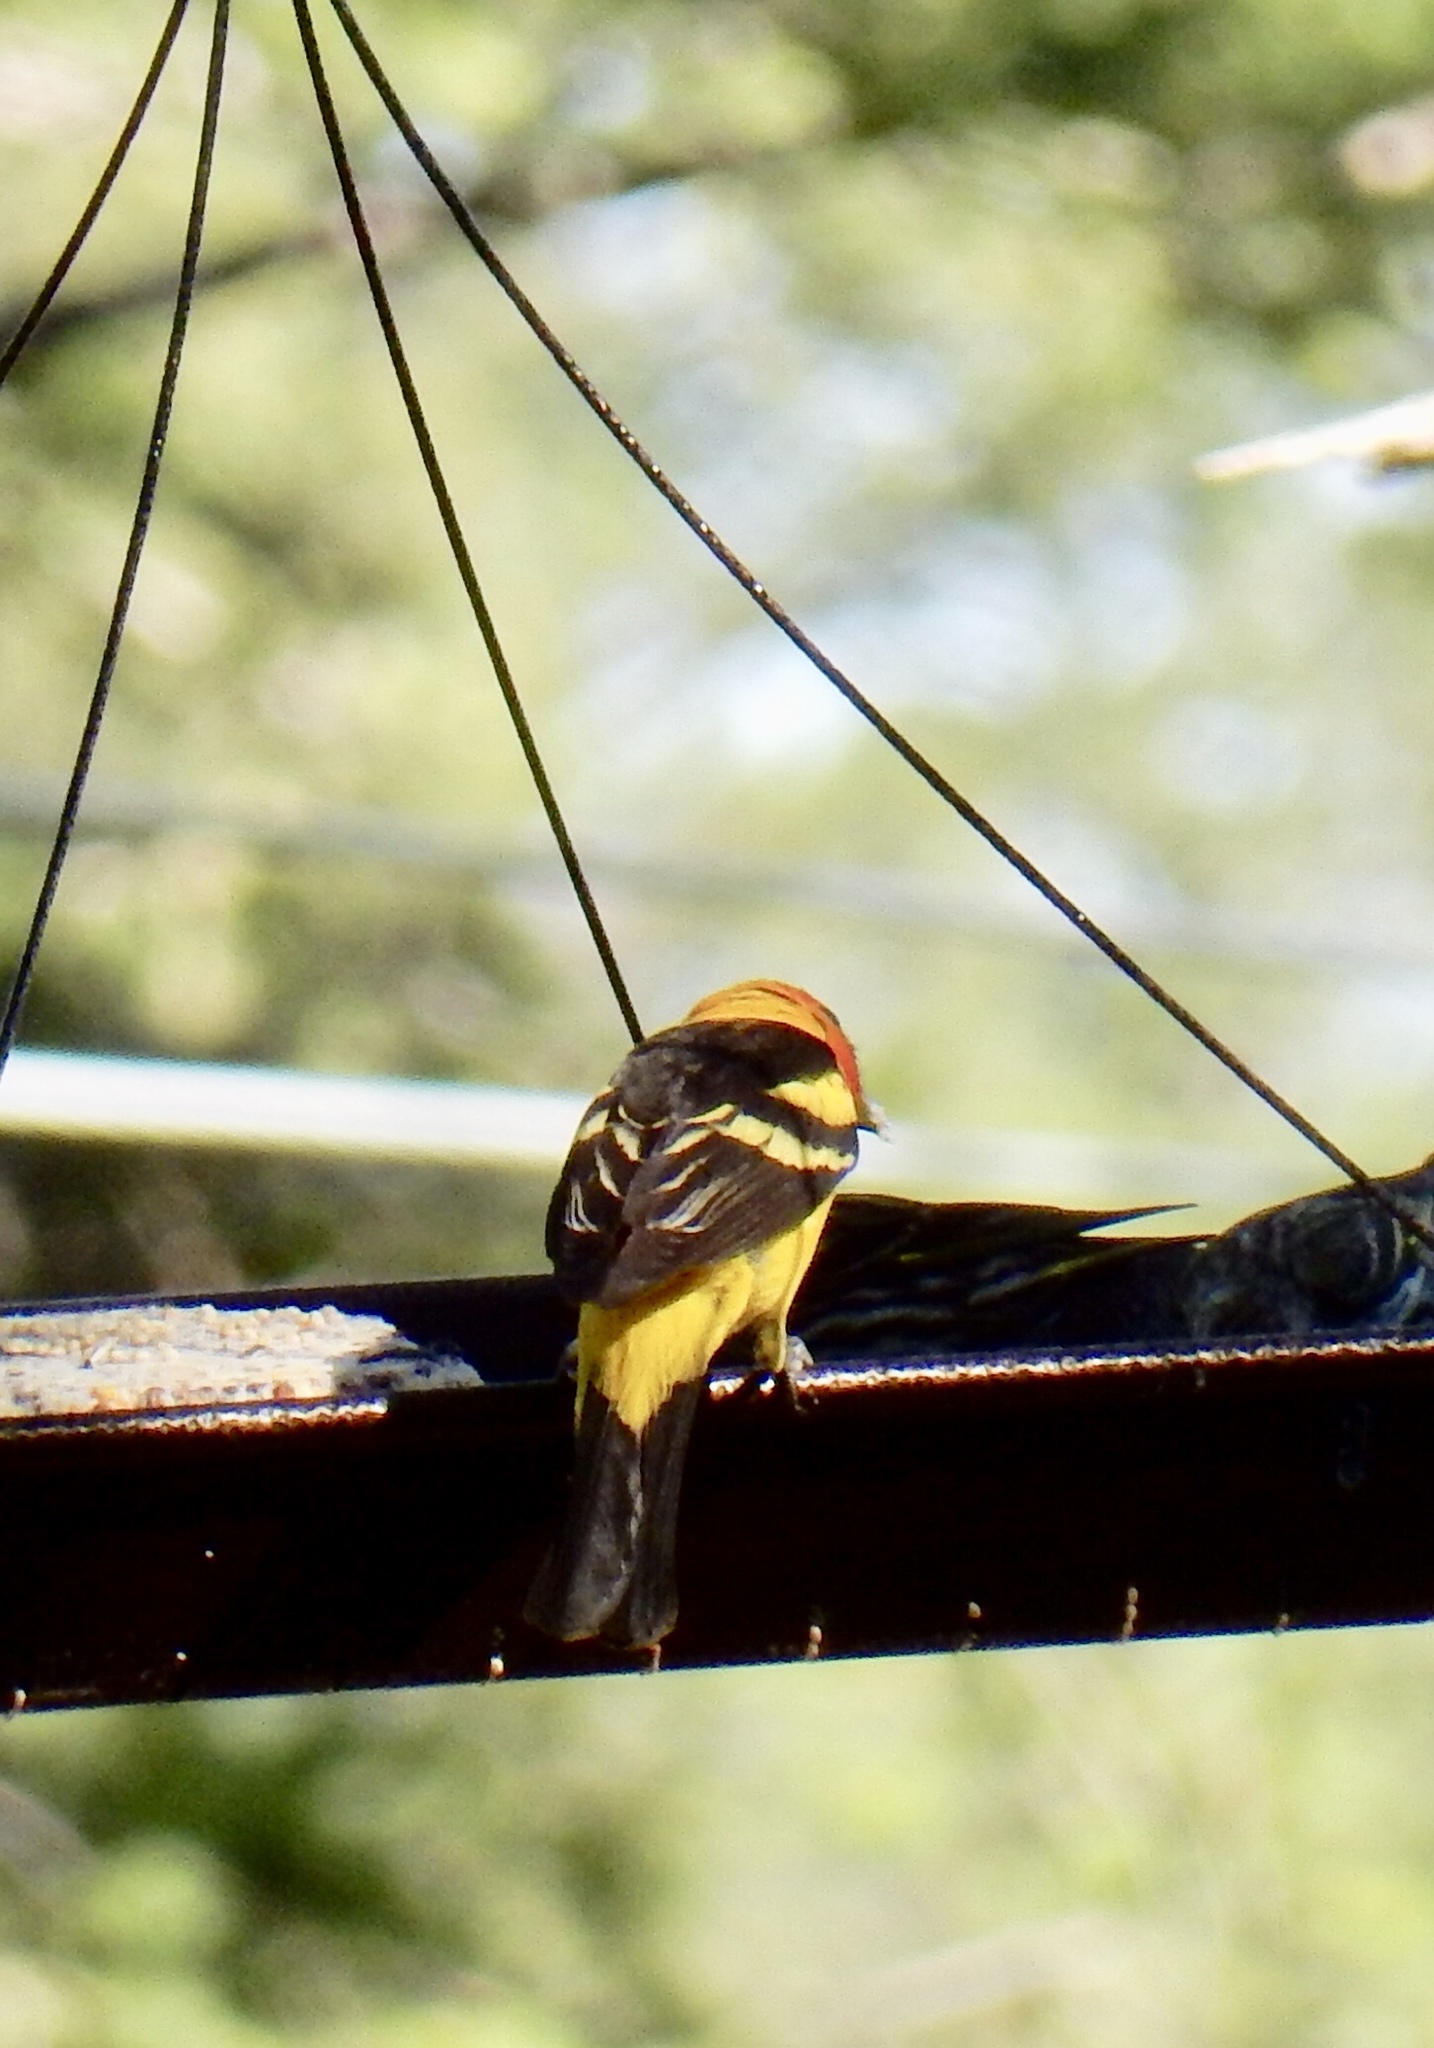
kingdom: Animalia
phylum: Chordata
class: Aves
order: Passeriformes
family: Cardinalidae
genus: Piranga
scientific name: Piranga ludoviciana
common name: Western tanager
